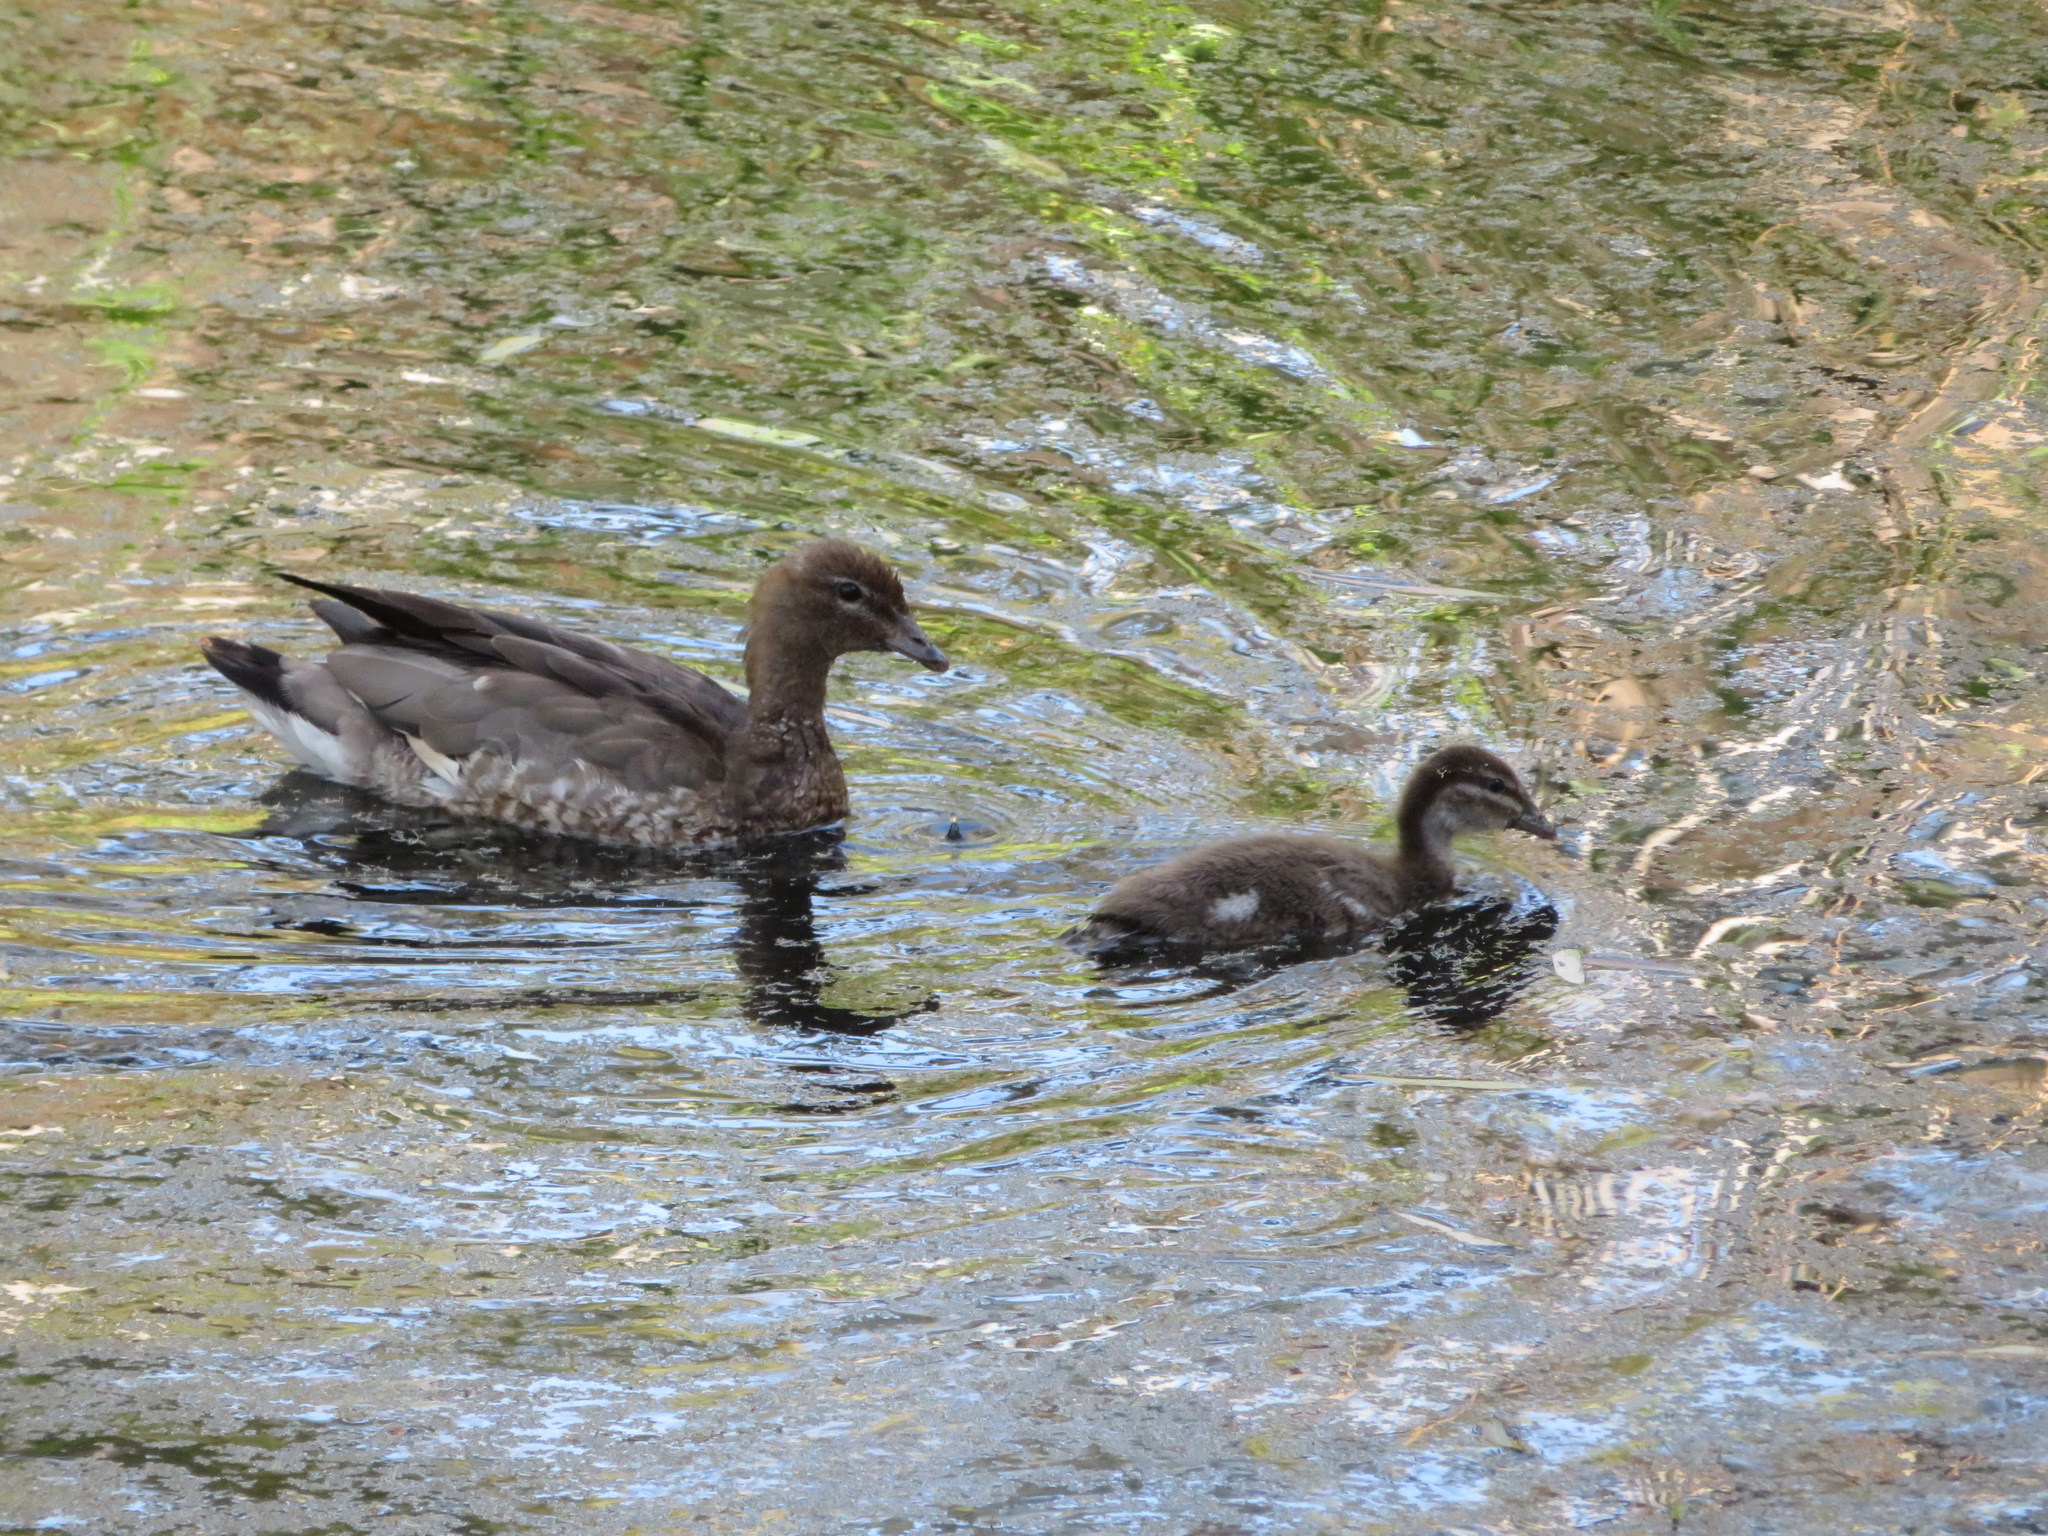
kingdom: Animalia
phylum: Chordata
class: Aves
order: Anseriformes
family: Anatidae
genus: Chenonetta
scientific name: Chenonetta jubata
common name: Maned duck
